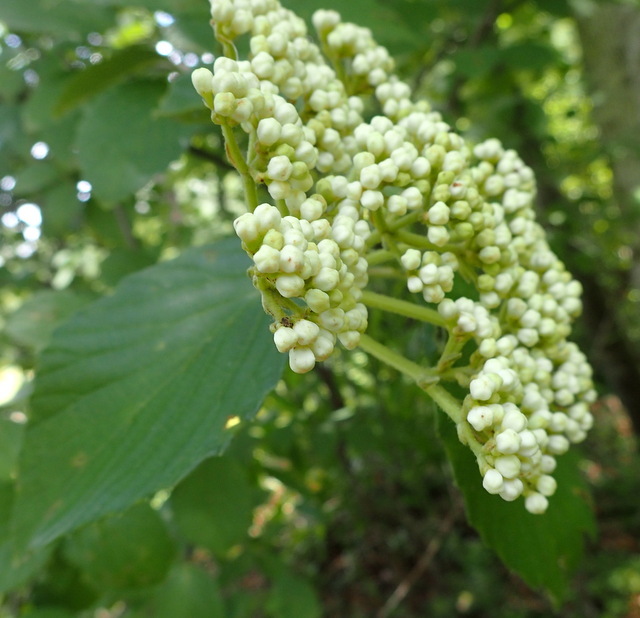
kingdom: Plantae
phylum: Tracheophyta
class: Magnoliopsida
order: Dipsacales
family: Viburnaceae
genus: Viburnum
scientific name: Viburnum scabrellum
